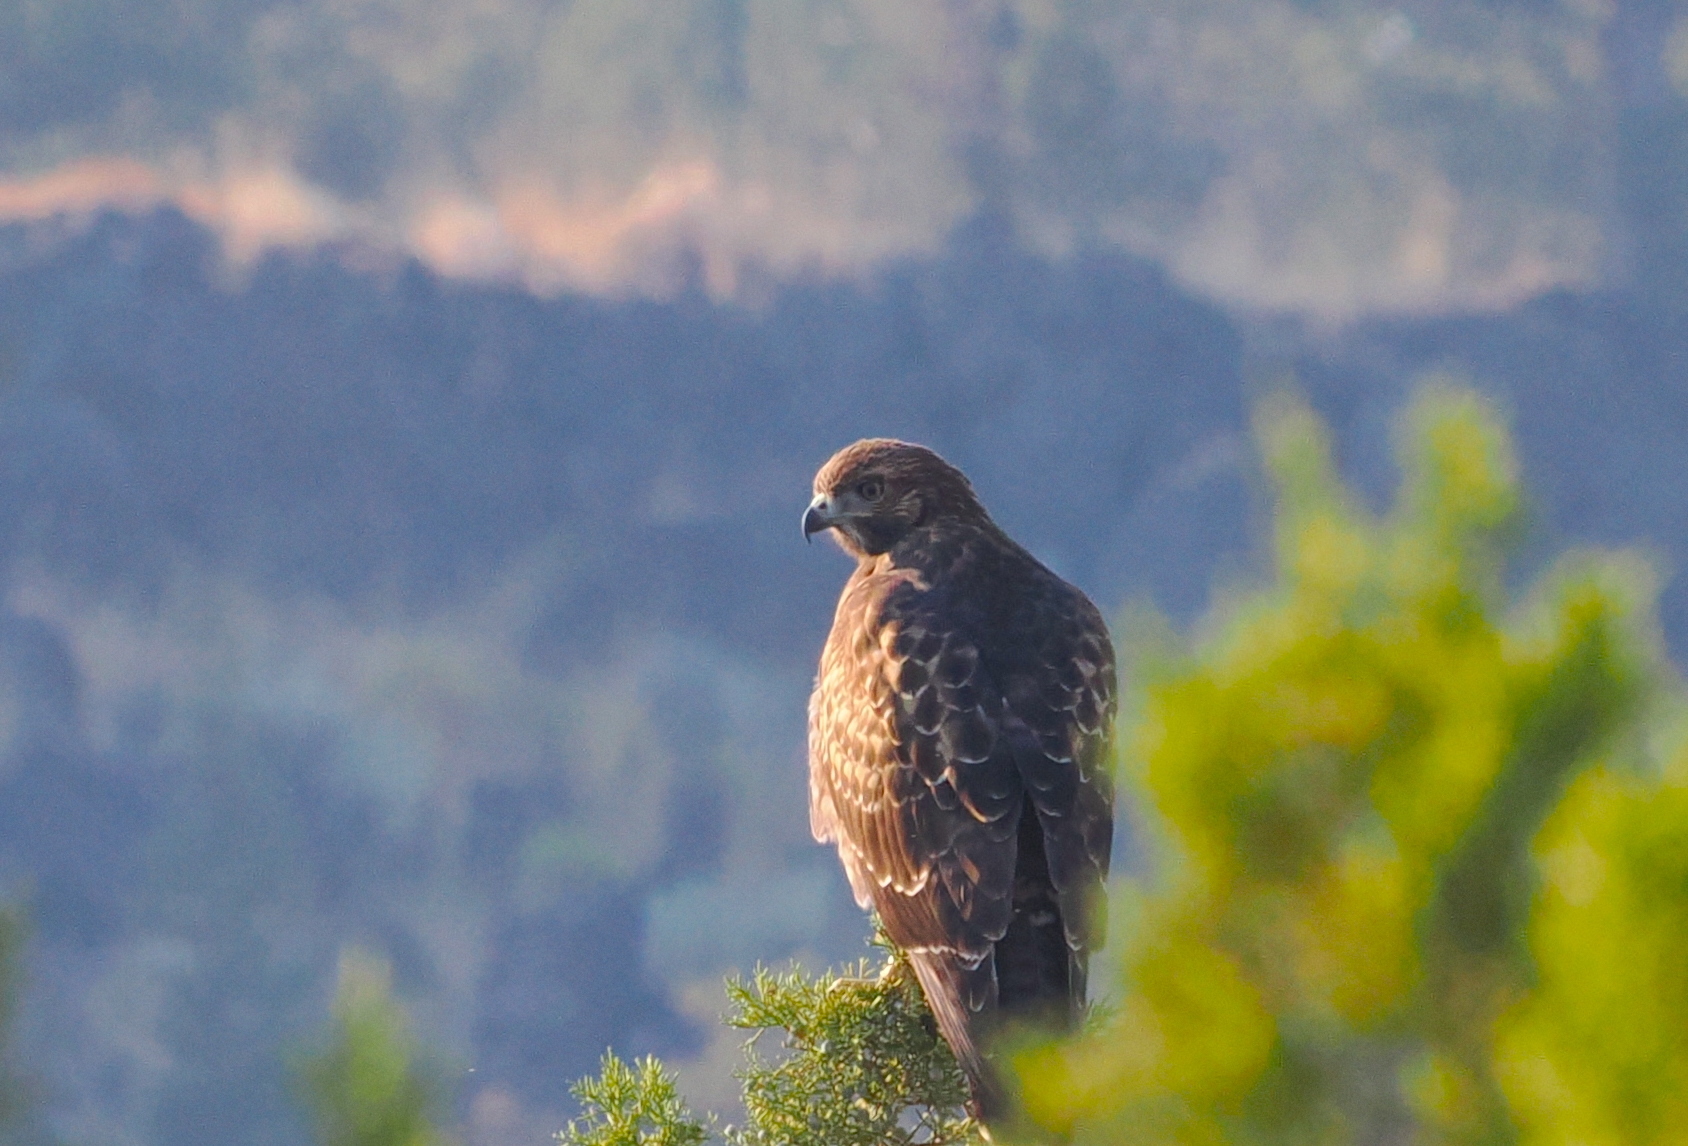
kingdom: Animalia
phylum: Chordata
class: Aves
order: Accipitriformes
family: Accipitridae
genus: Buteo
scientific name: Buteo jamaicensis
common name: Red-tailed hawk
